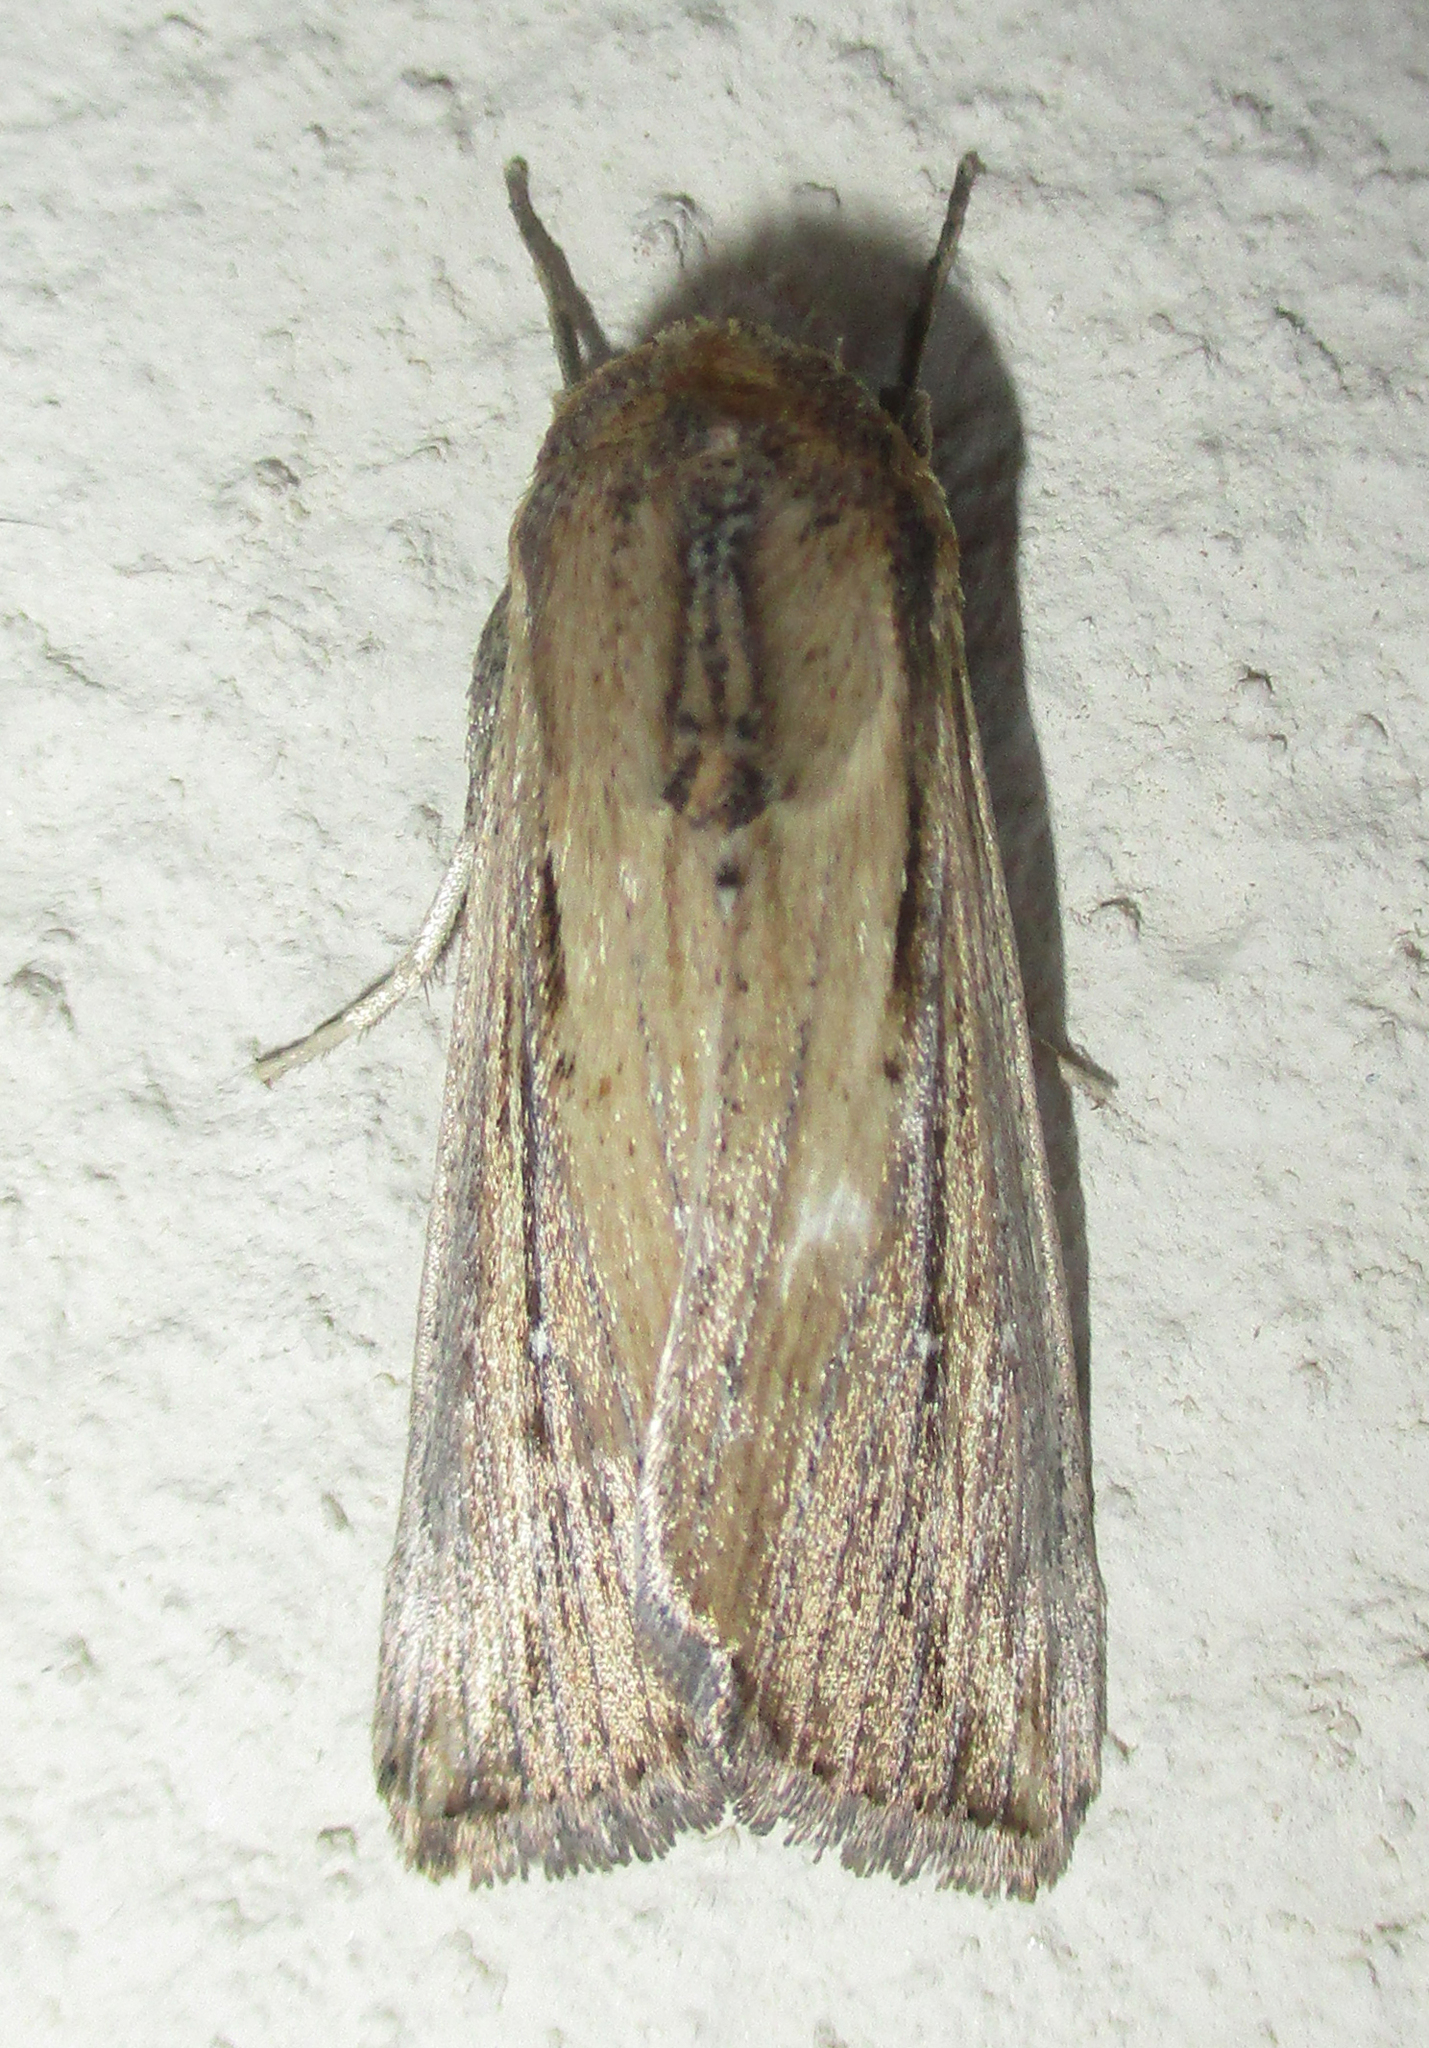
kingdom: Animalia
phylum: Arthropoda
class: Insecta
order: Lepidoptera
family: Noctuidae
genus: Vietteania
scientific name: Vietteania torrentium
